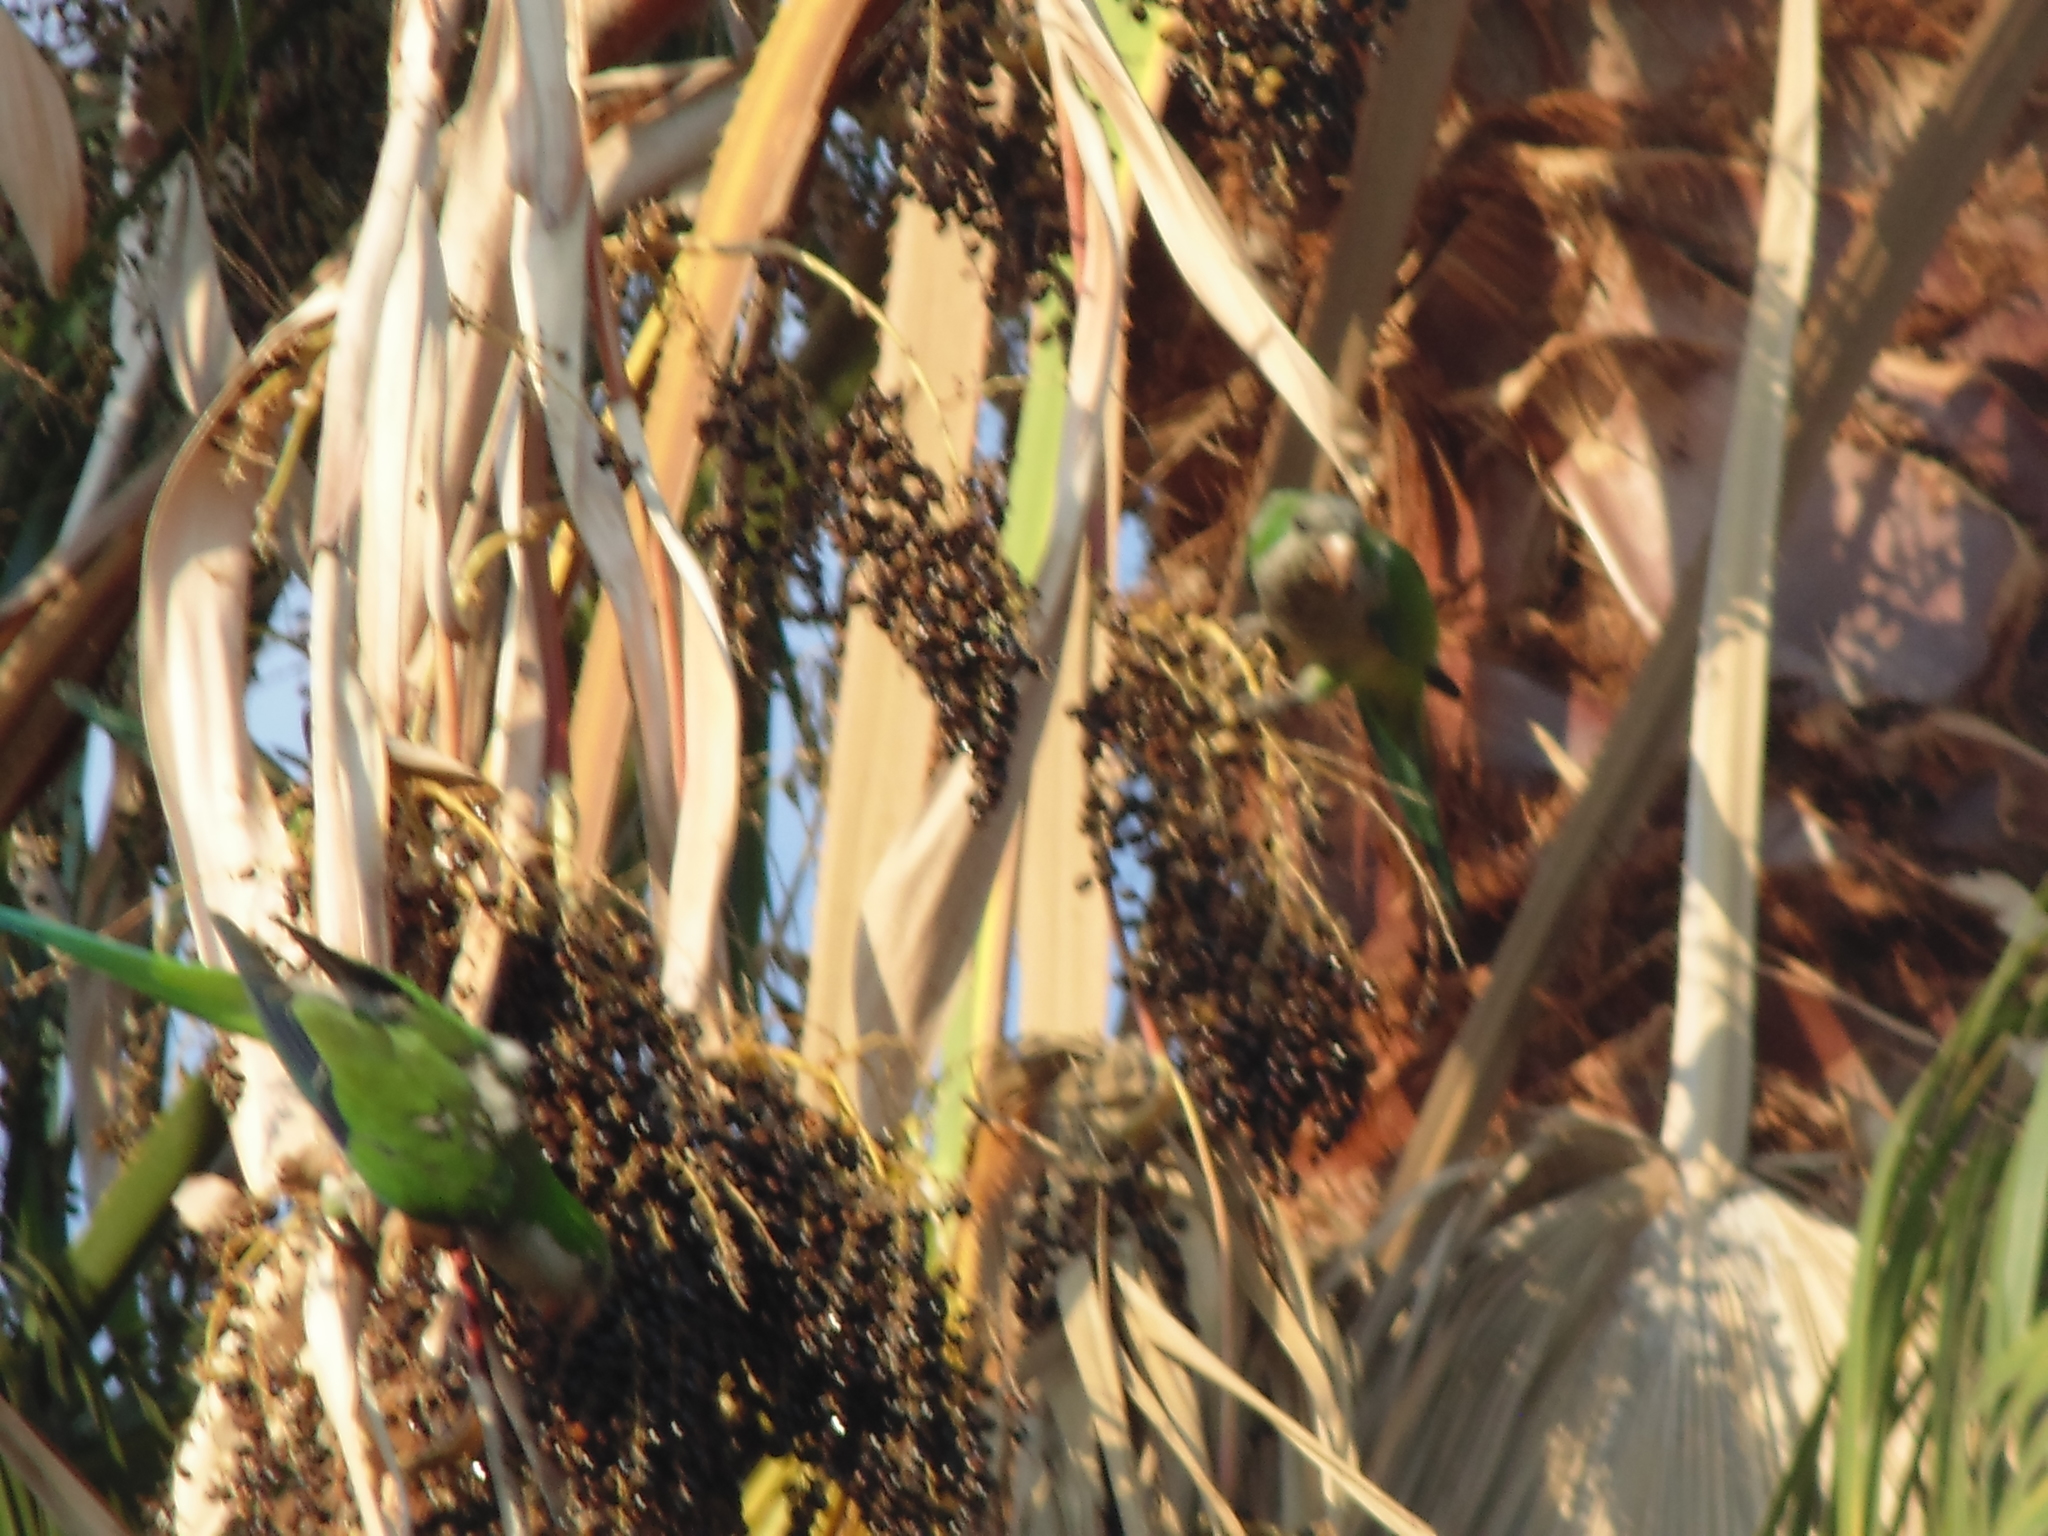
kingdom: Animalia
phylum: Chordata
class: Aves
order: Psittaciformes
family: Psittacidae
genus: Myiopsitta
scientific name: Myiopsitta monachus
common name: Monk parakeet
